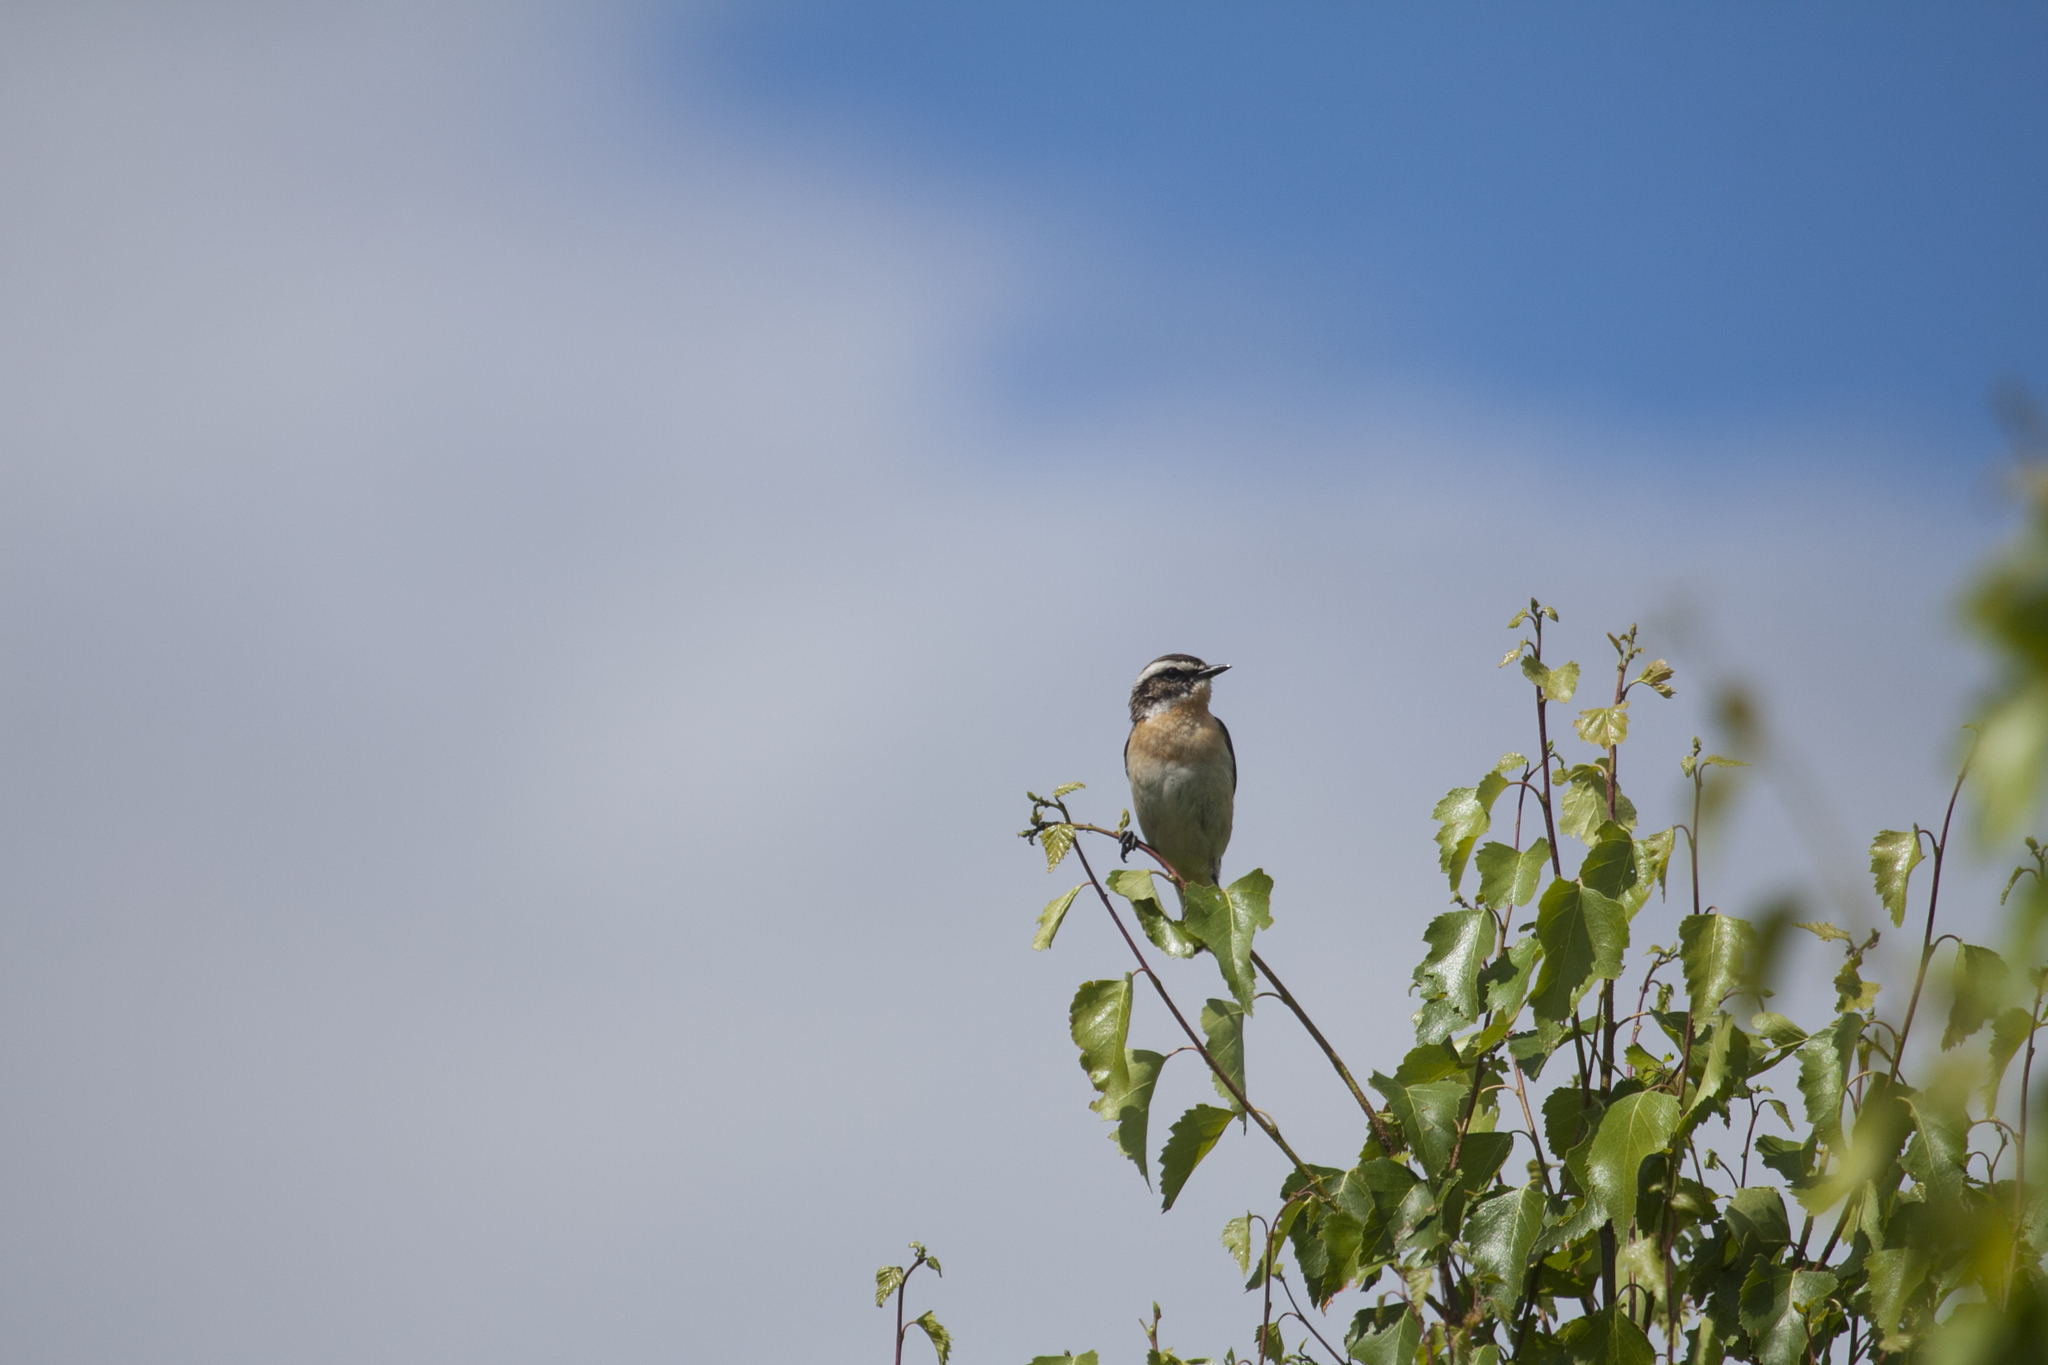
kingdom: Animalia
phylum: Chordata
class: Aves
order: Passeriformes
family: Muscicapidae
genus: Saxicola
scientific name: Saxicola rubetra
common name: Whinchat
